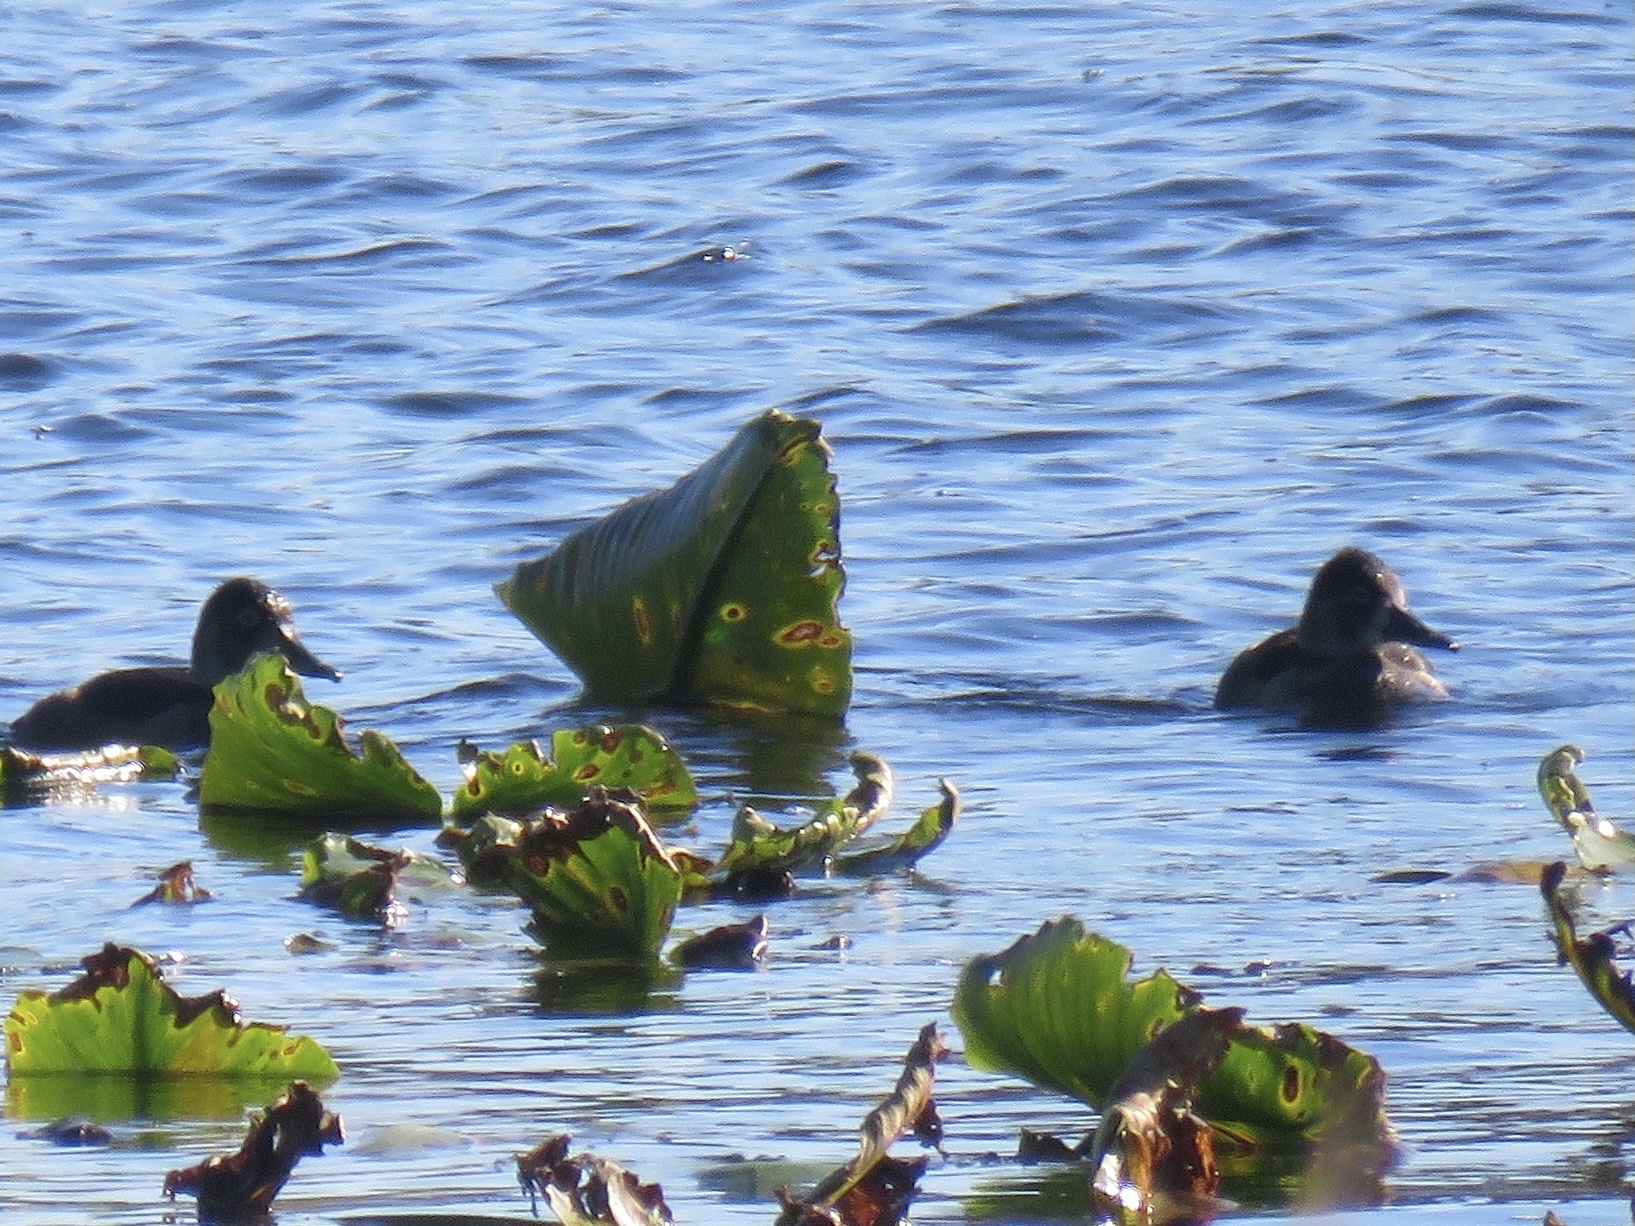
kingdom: Animalia
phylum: Chordata
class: Aves
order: Anseriformes
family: Anatidae
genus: Aythya
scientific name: Aythya collaris
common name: Ring-necked duck
